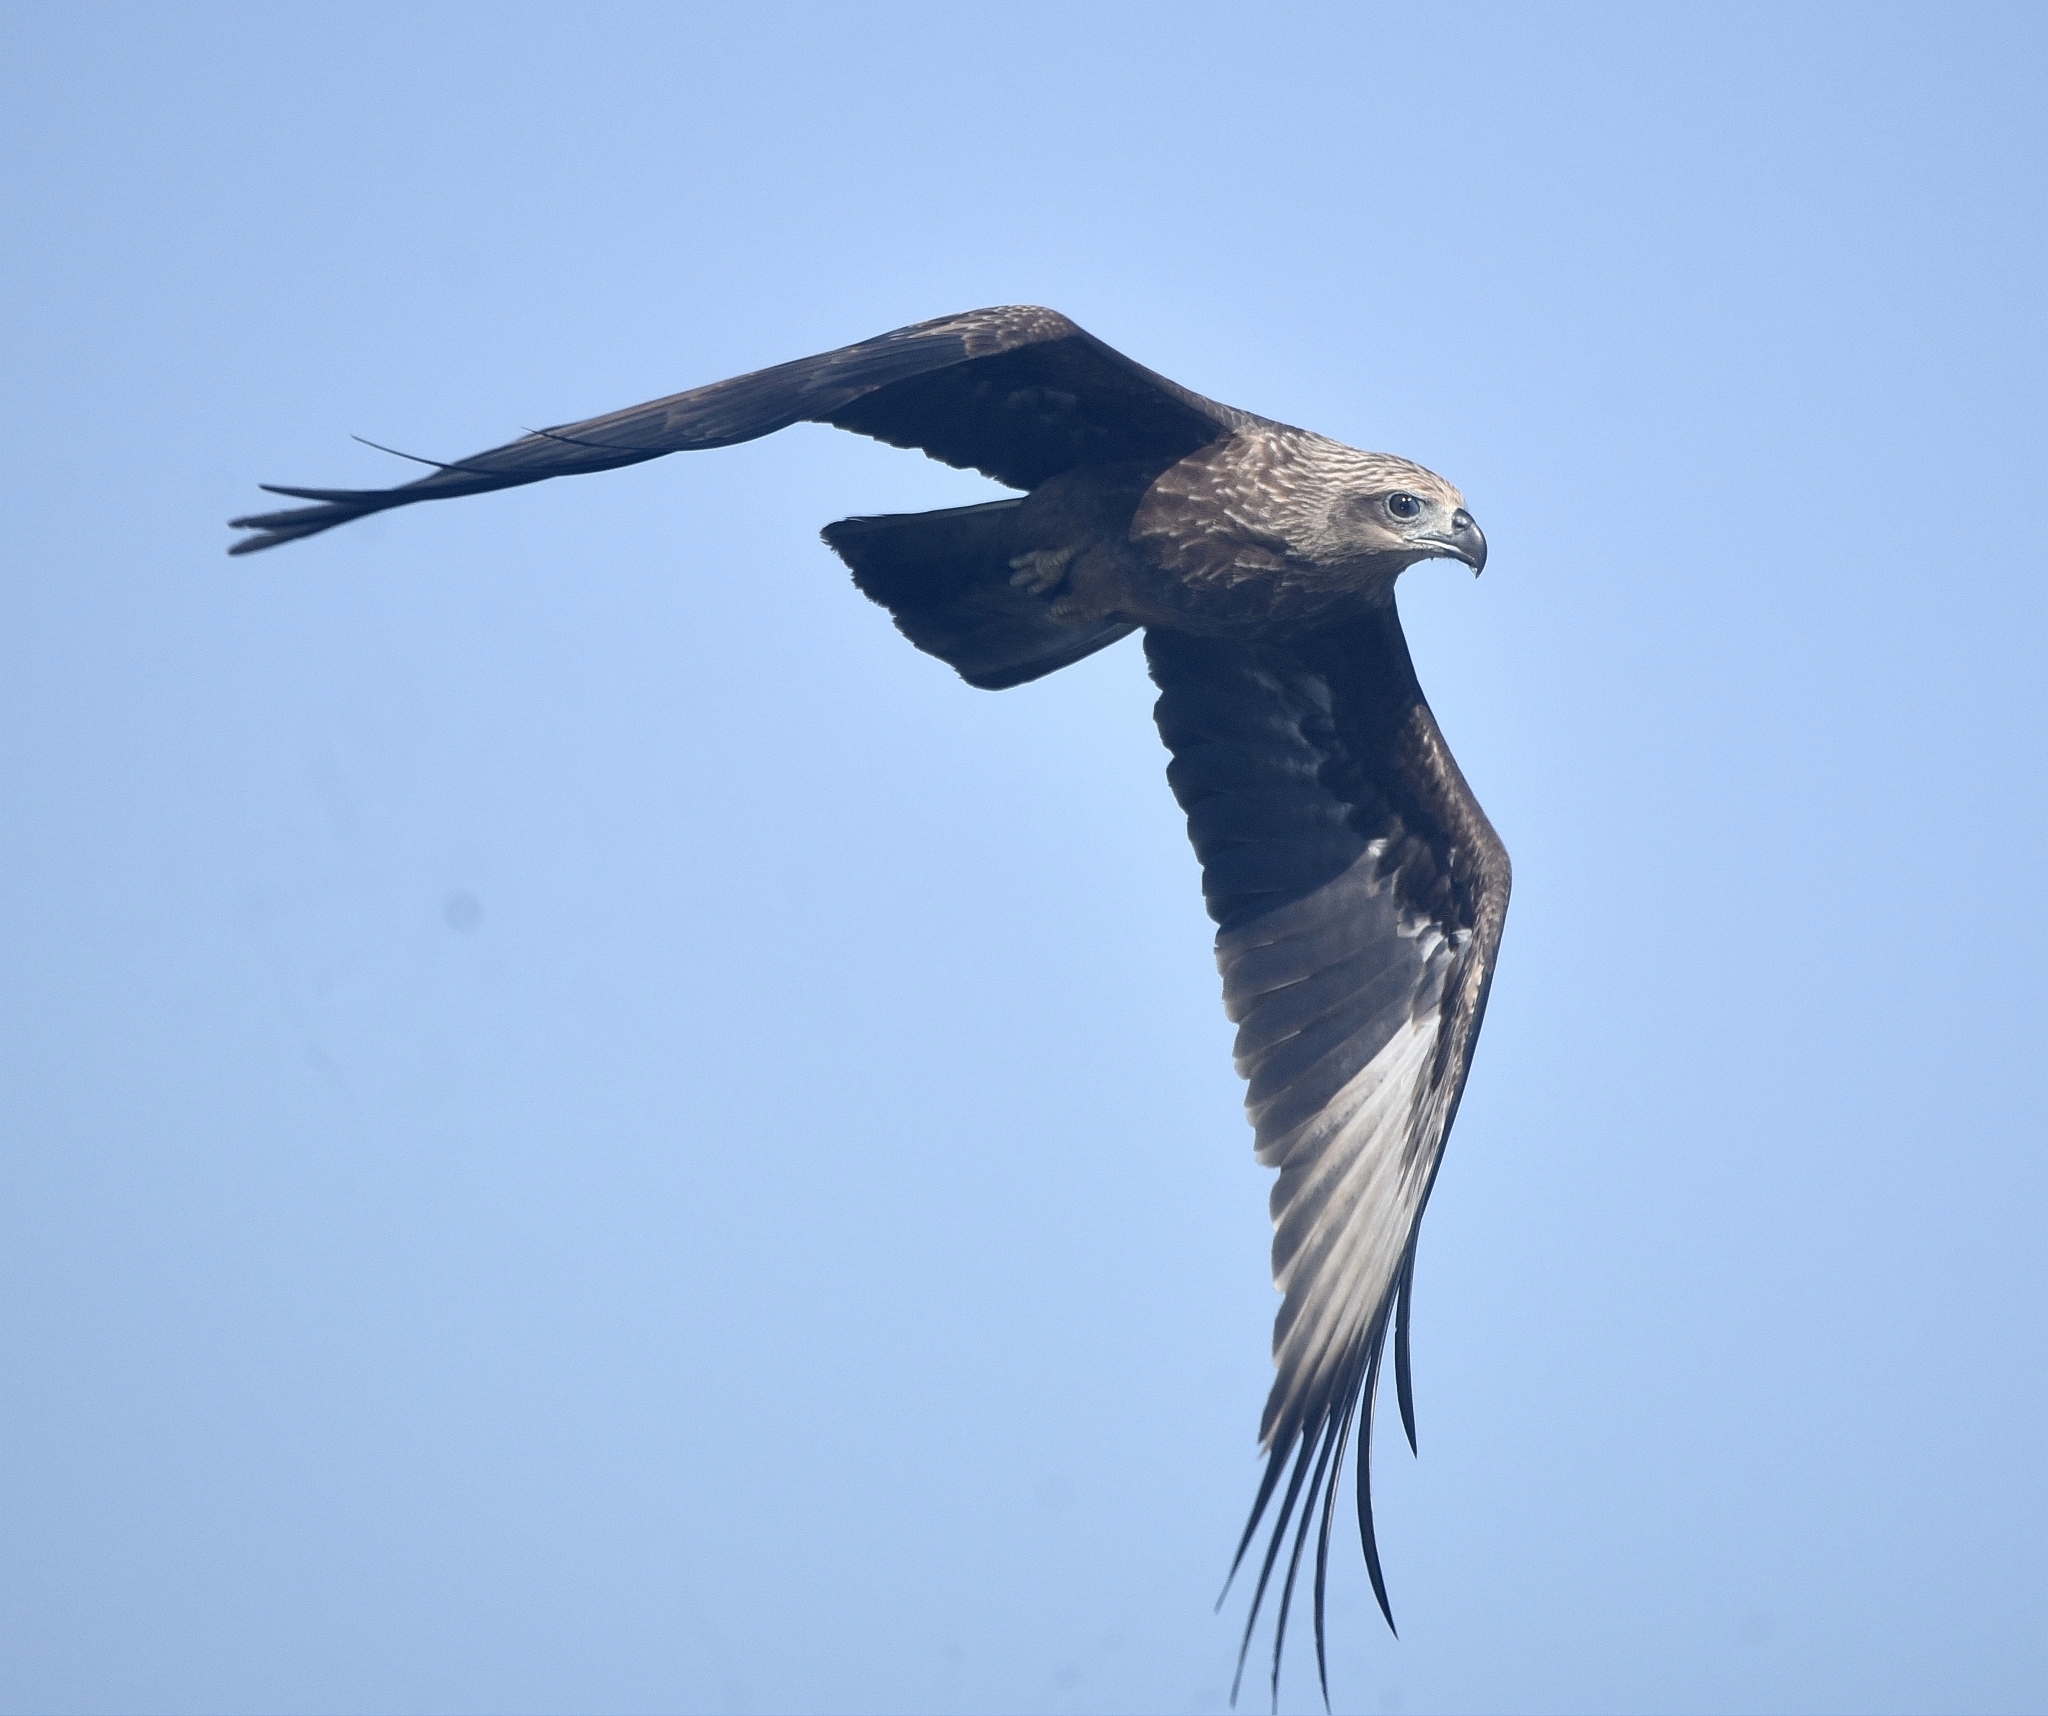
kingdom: Animalia
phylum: Chordata
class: Aves
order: Accipitriformes
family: Accipitridae
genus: Haliastur
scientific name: Haliastur indus
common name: Brahminy kite
